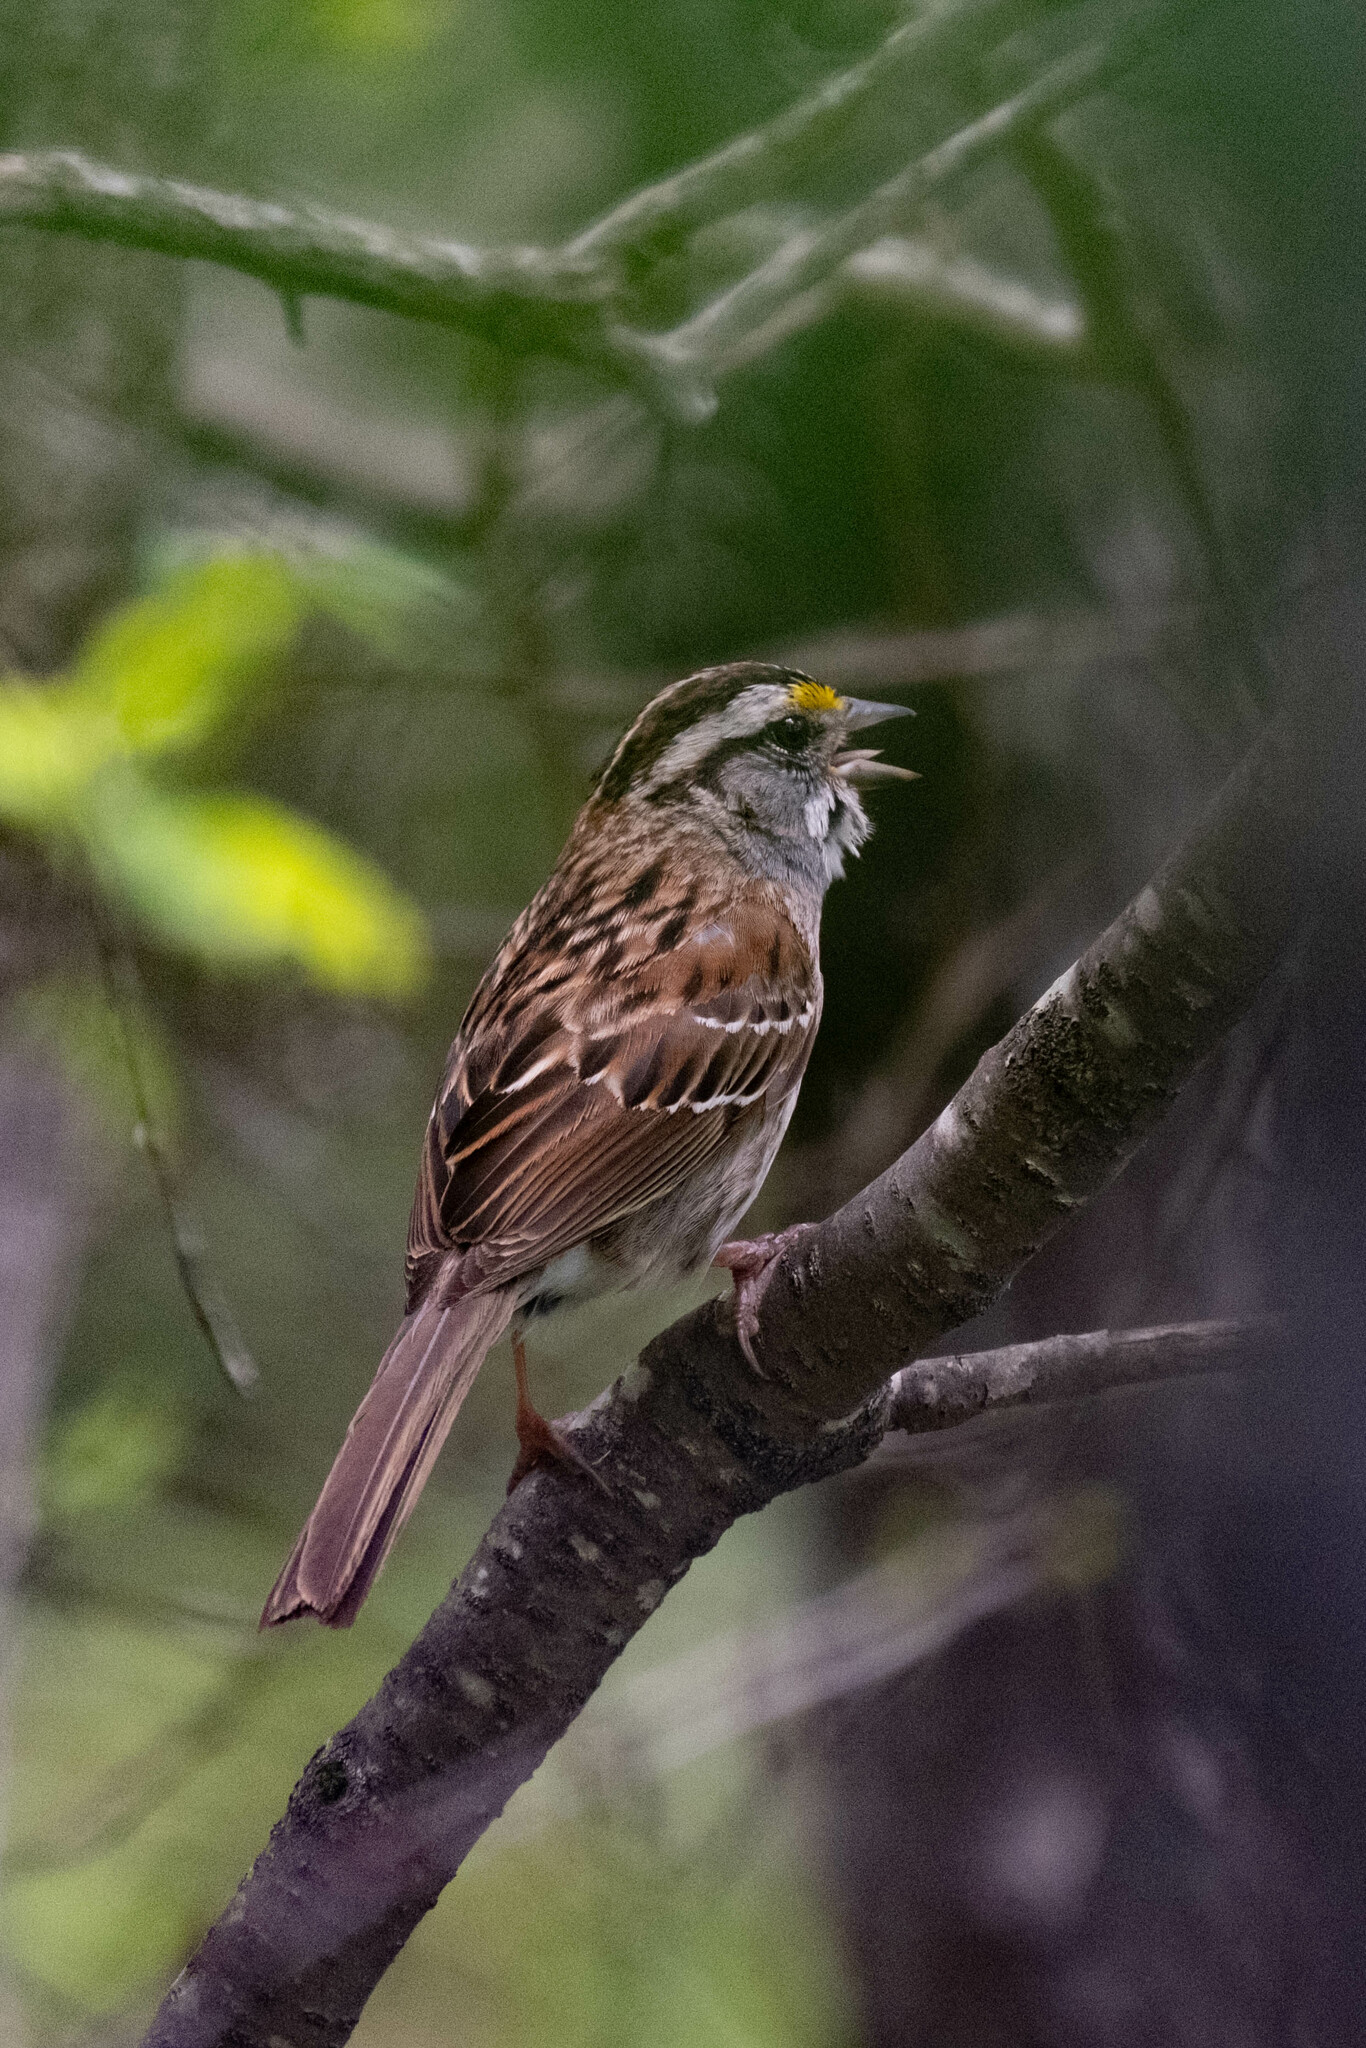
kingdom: Animalia
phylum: Chordata
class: Aves
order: Passeriformes
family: Passerellidae
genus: Zonotrichia
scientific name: Zonotrichia albicollis
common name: White-throated sparrow
